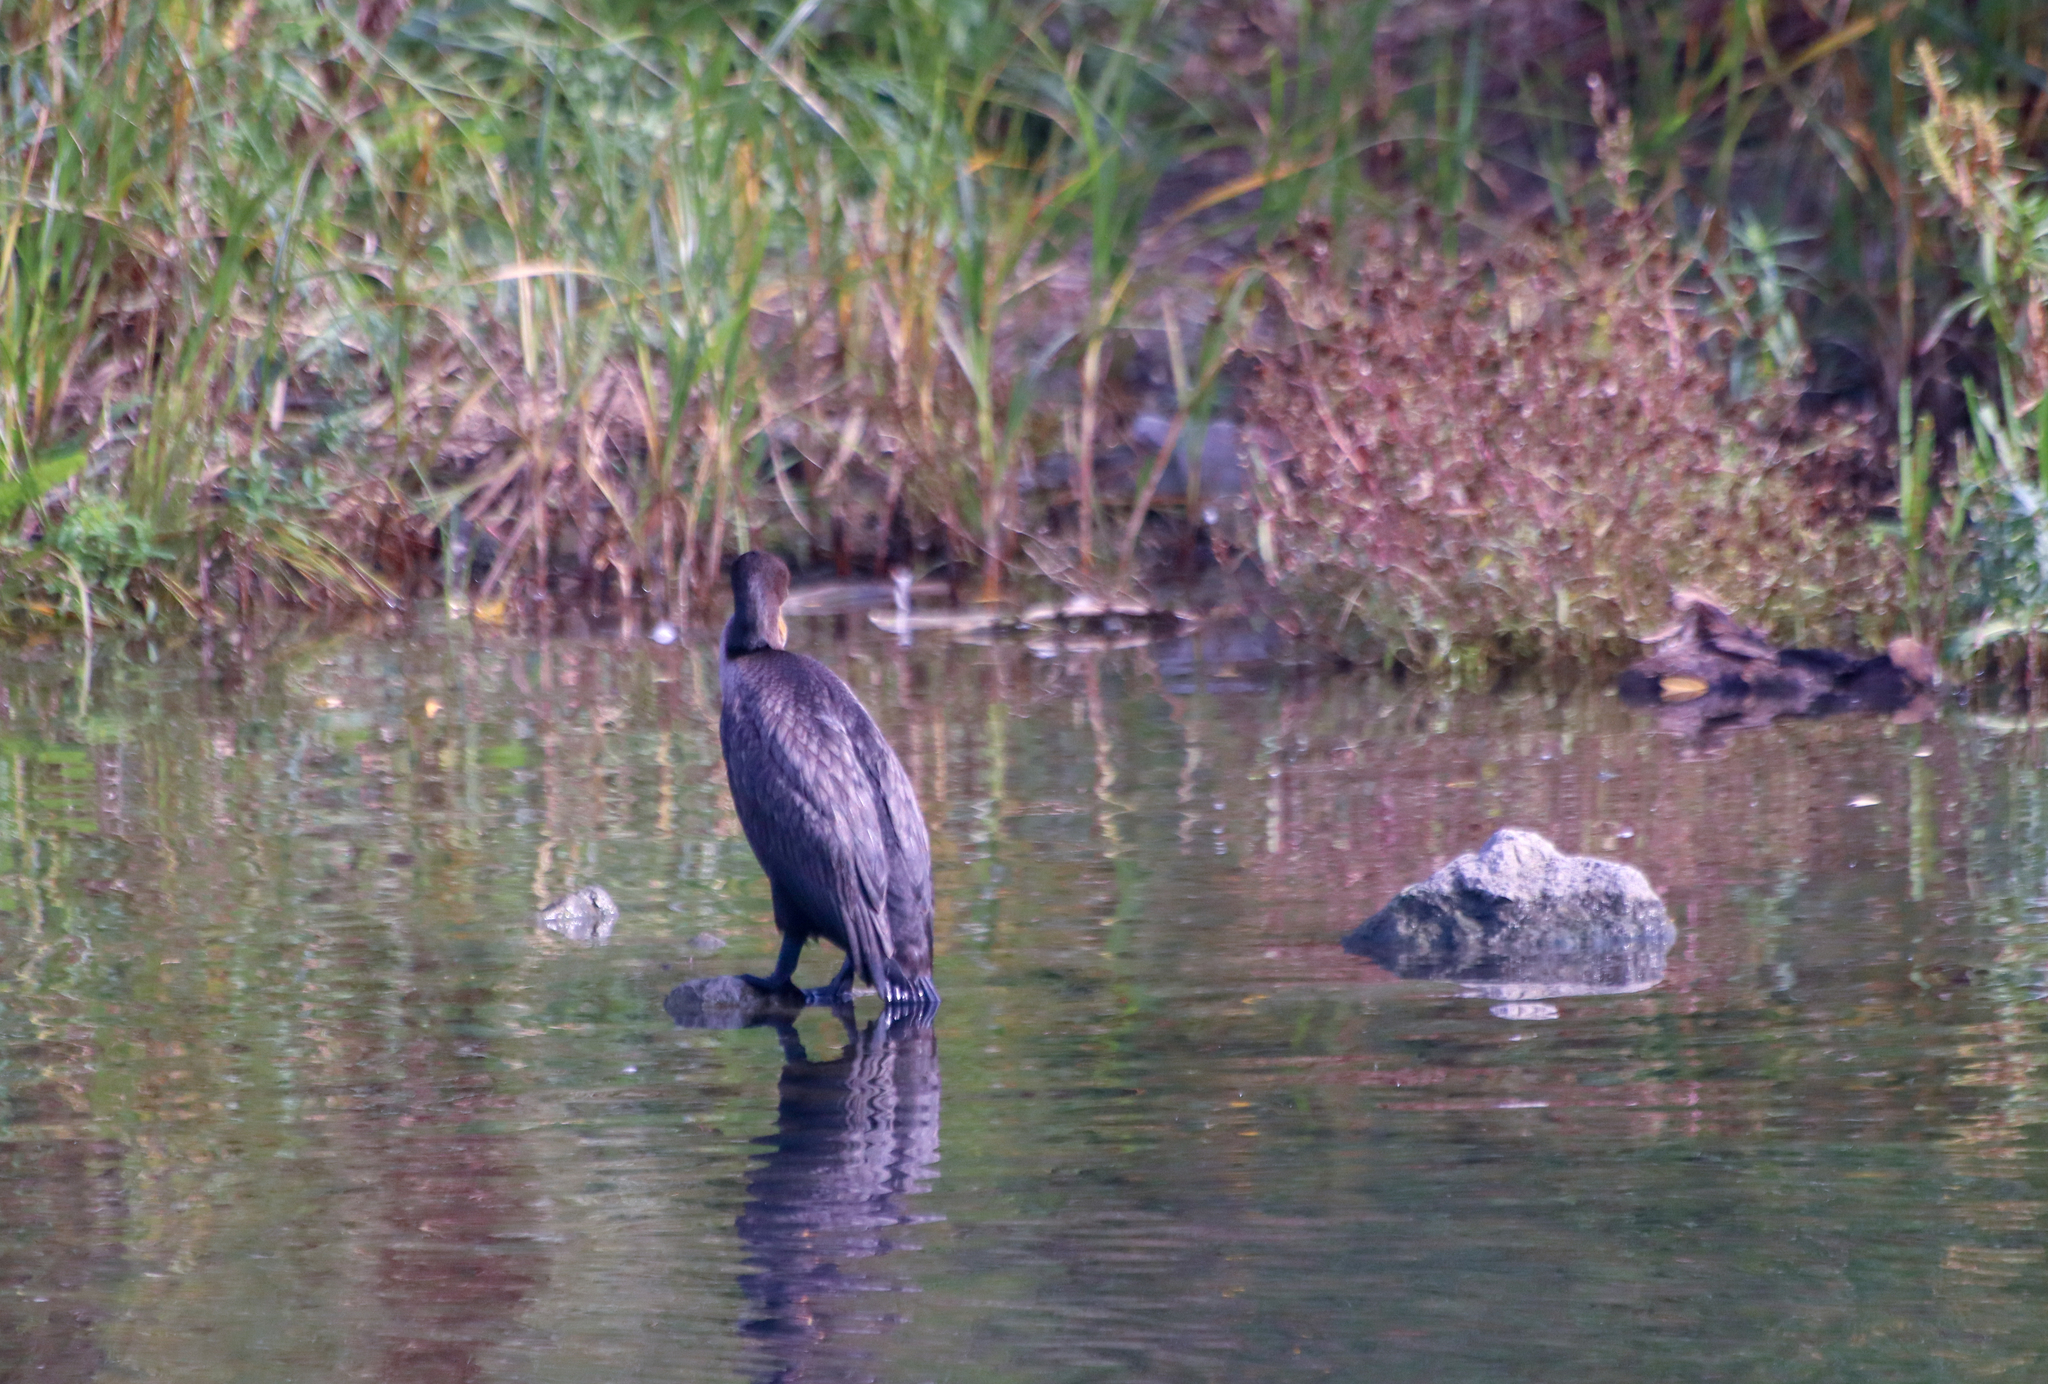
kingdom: Animalia
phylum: Chordata
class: Aves
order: Suliformes
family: Phalacrocoracidae
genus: Phalacrocorax
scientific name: Phalacrocorax auritus
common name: Double-crested cormorant
